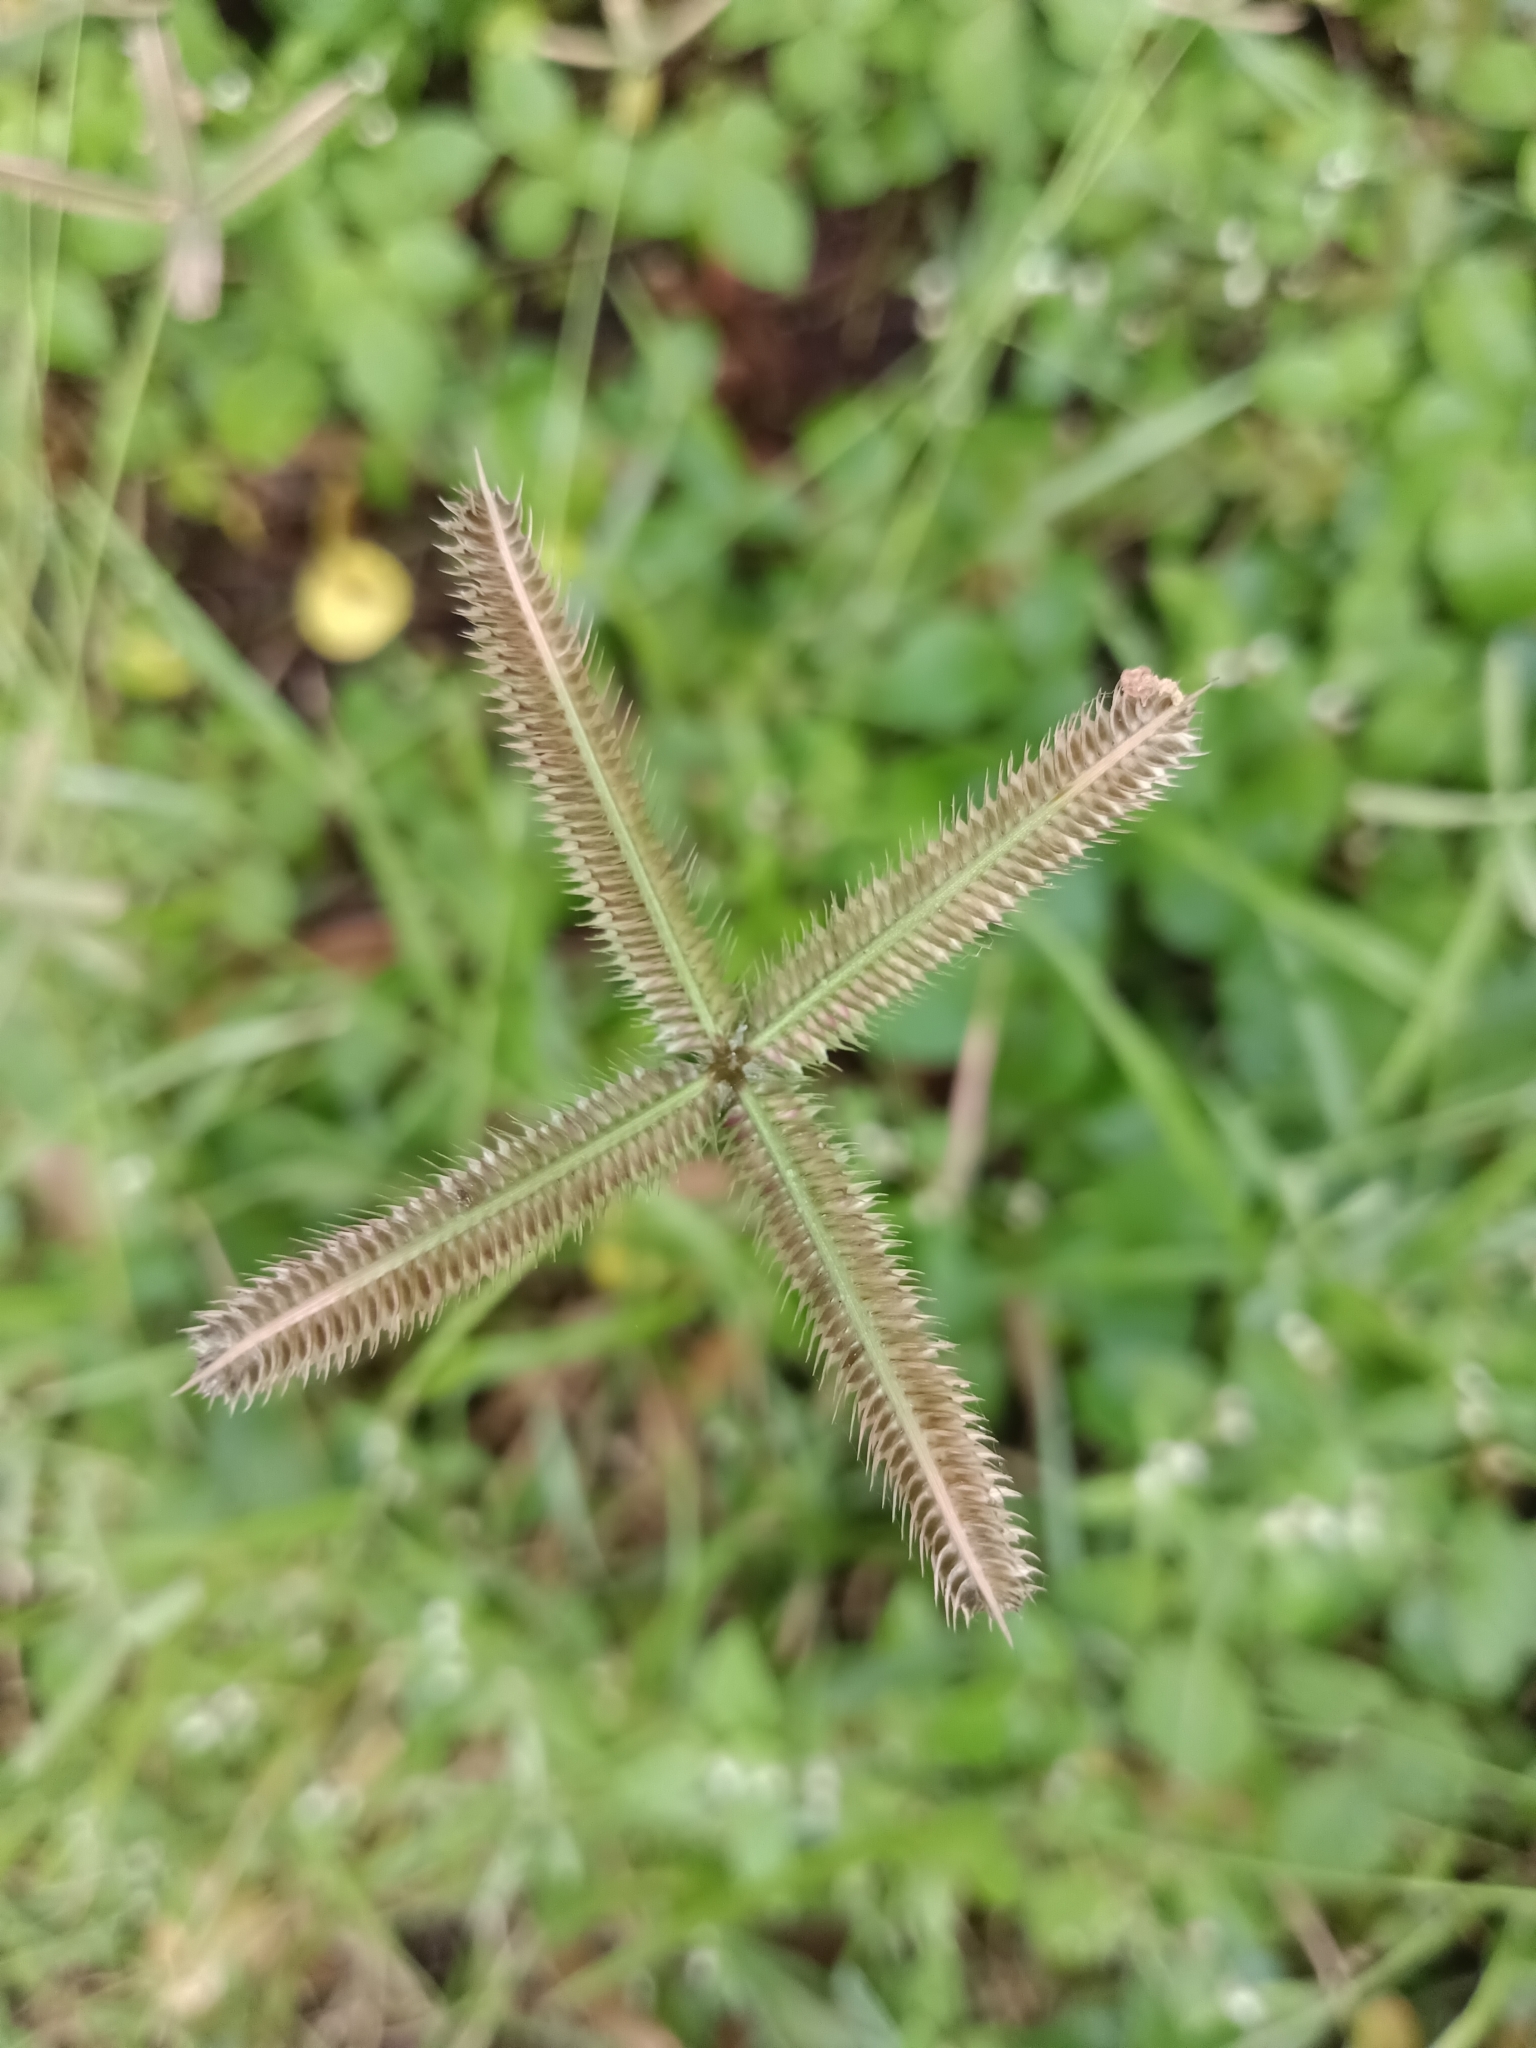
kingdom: Plantae
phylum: Tracheophyta
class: Liliopsida
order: Poales
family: Poaceae
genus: Dactyloctenium
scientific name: Dactyloctenium aegyptium
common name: Egyptian grass
